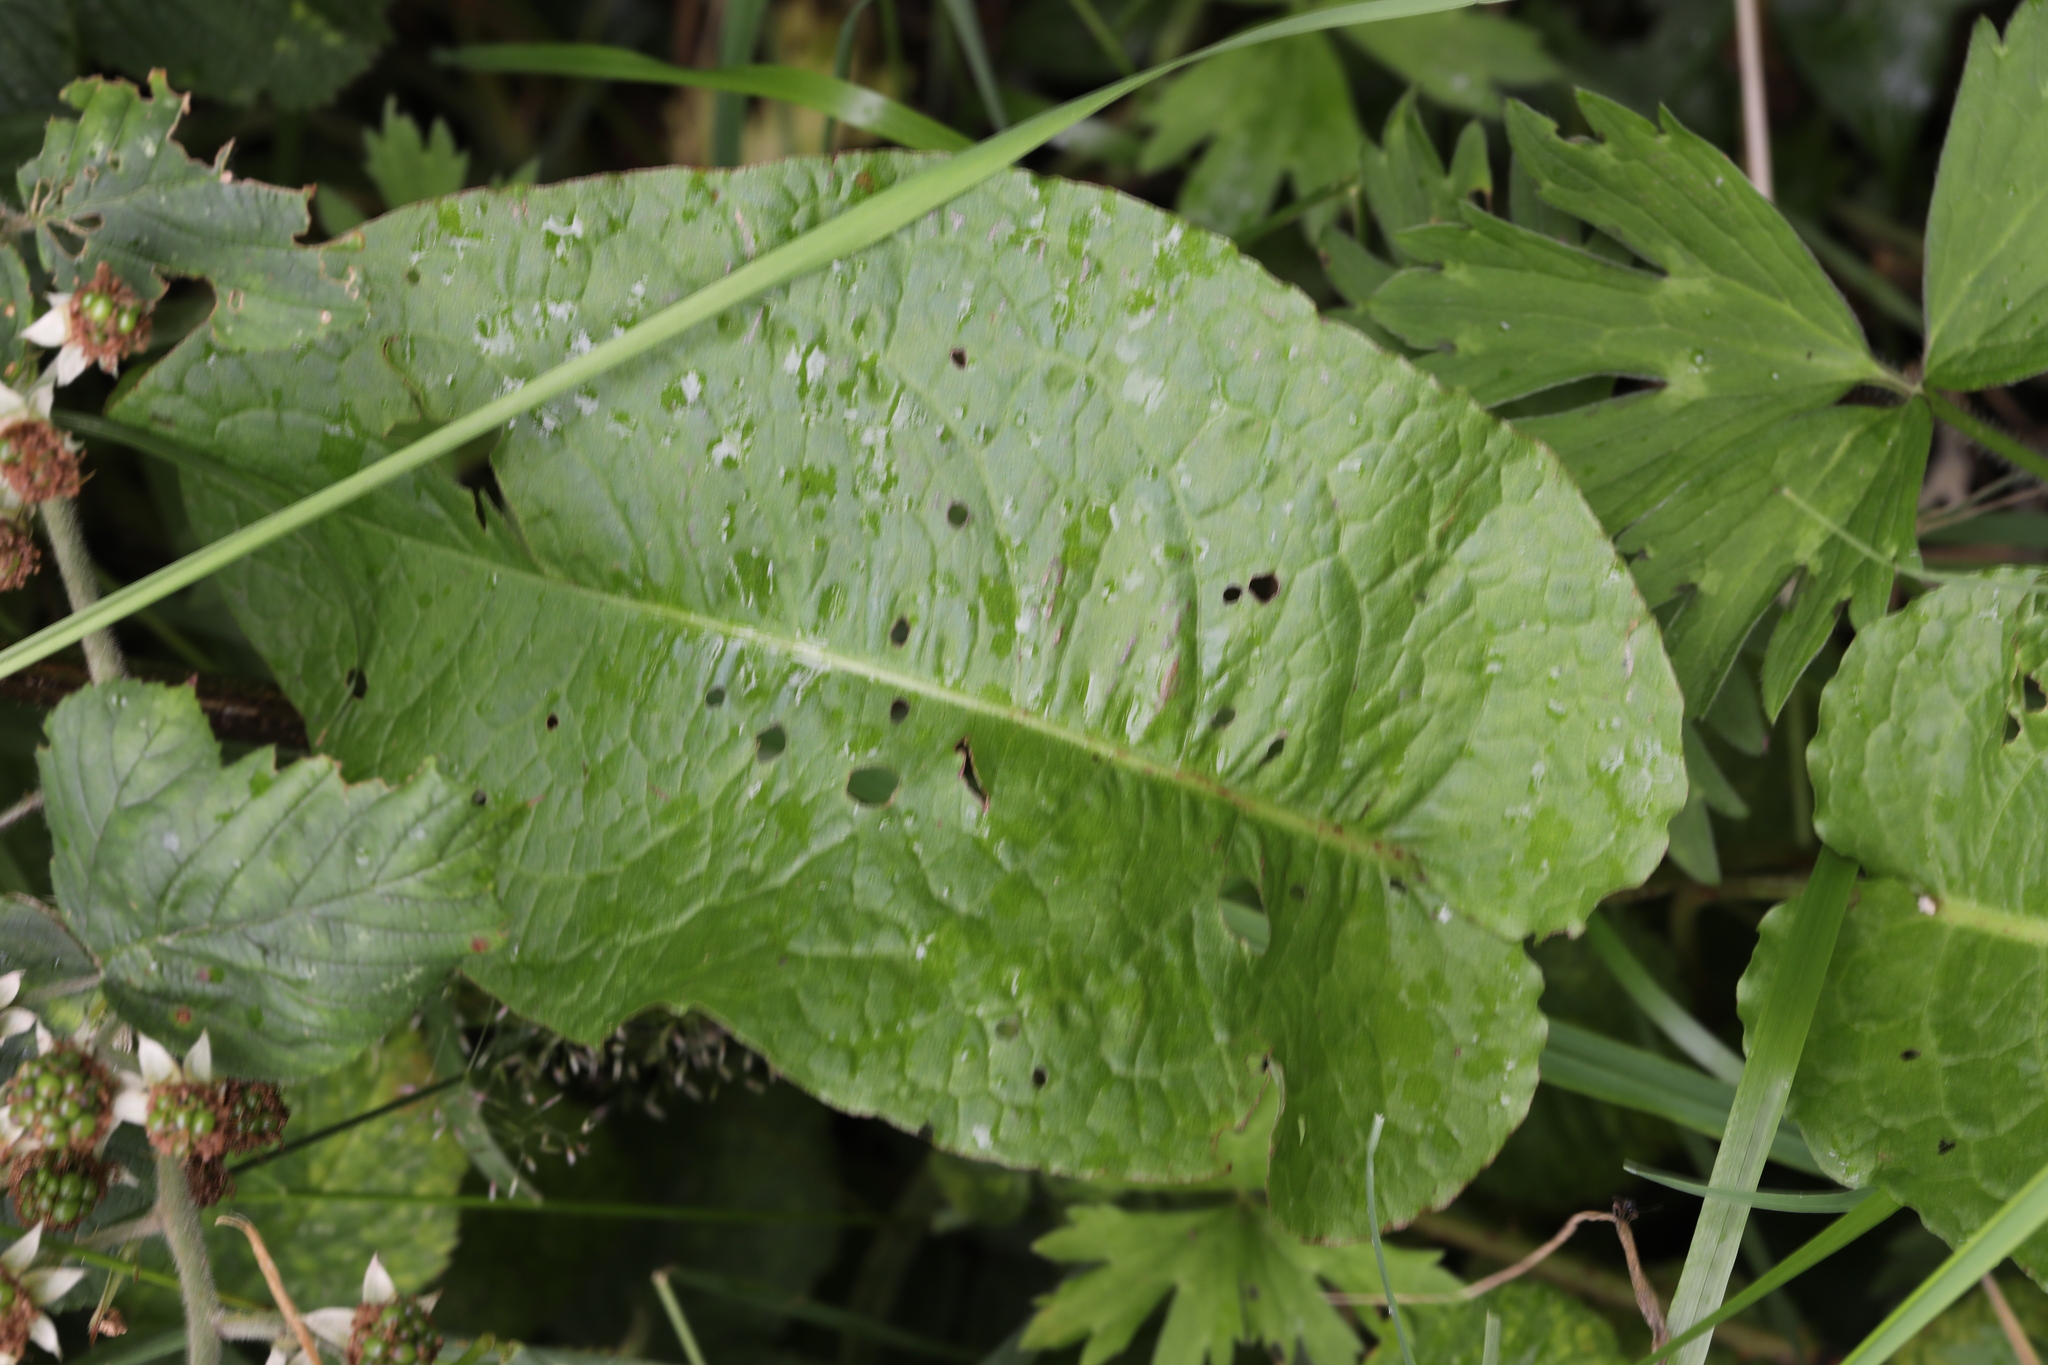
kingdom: Plantae
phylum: Tracheophyta
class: Magnoliopsida
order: Caryophyllales
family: Polygonaceae
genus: Rumex
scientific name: Rumex obtusifolius
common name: Bitter dock
